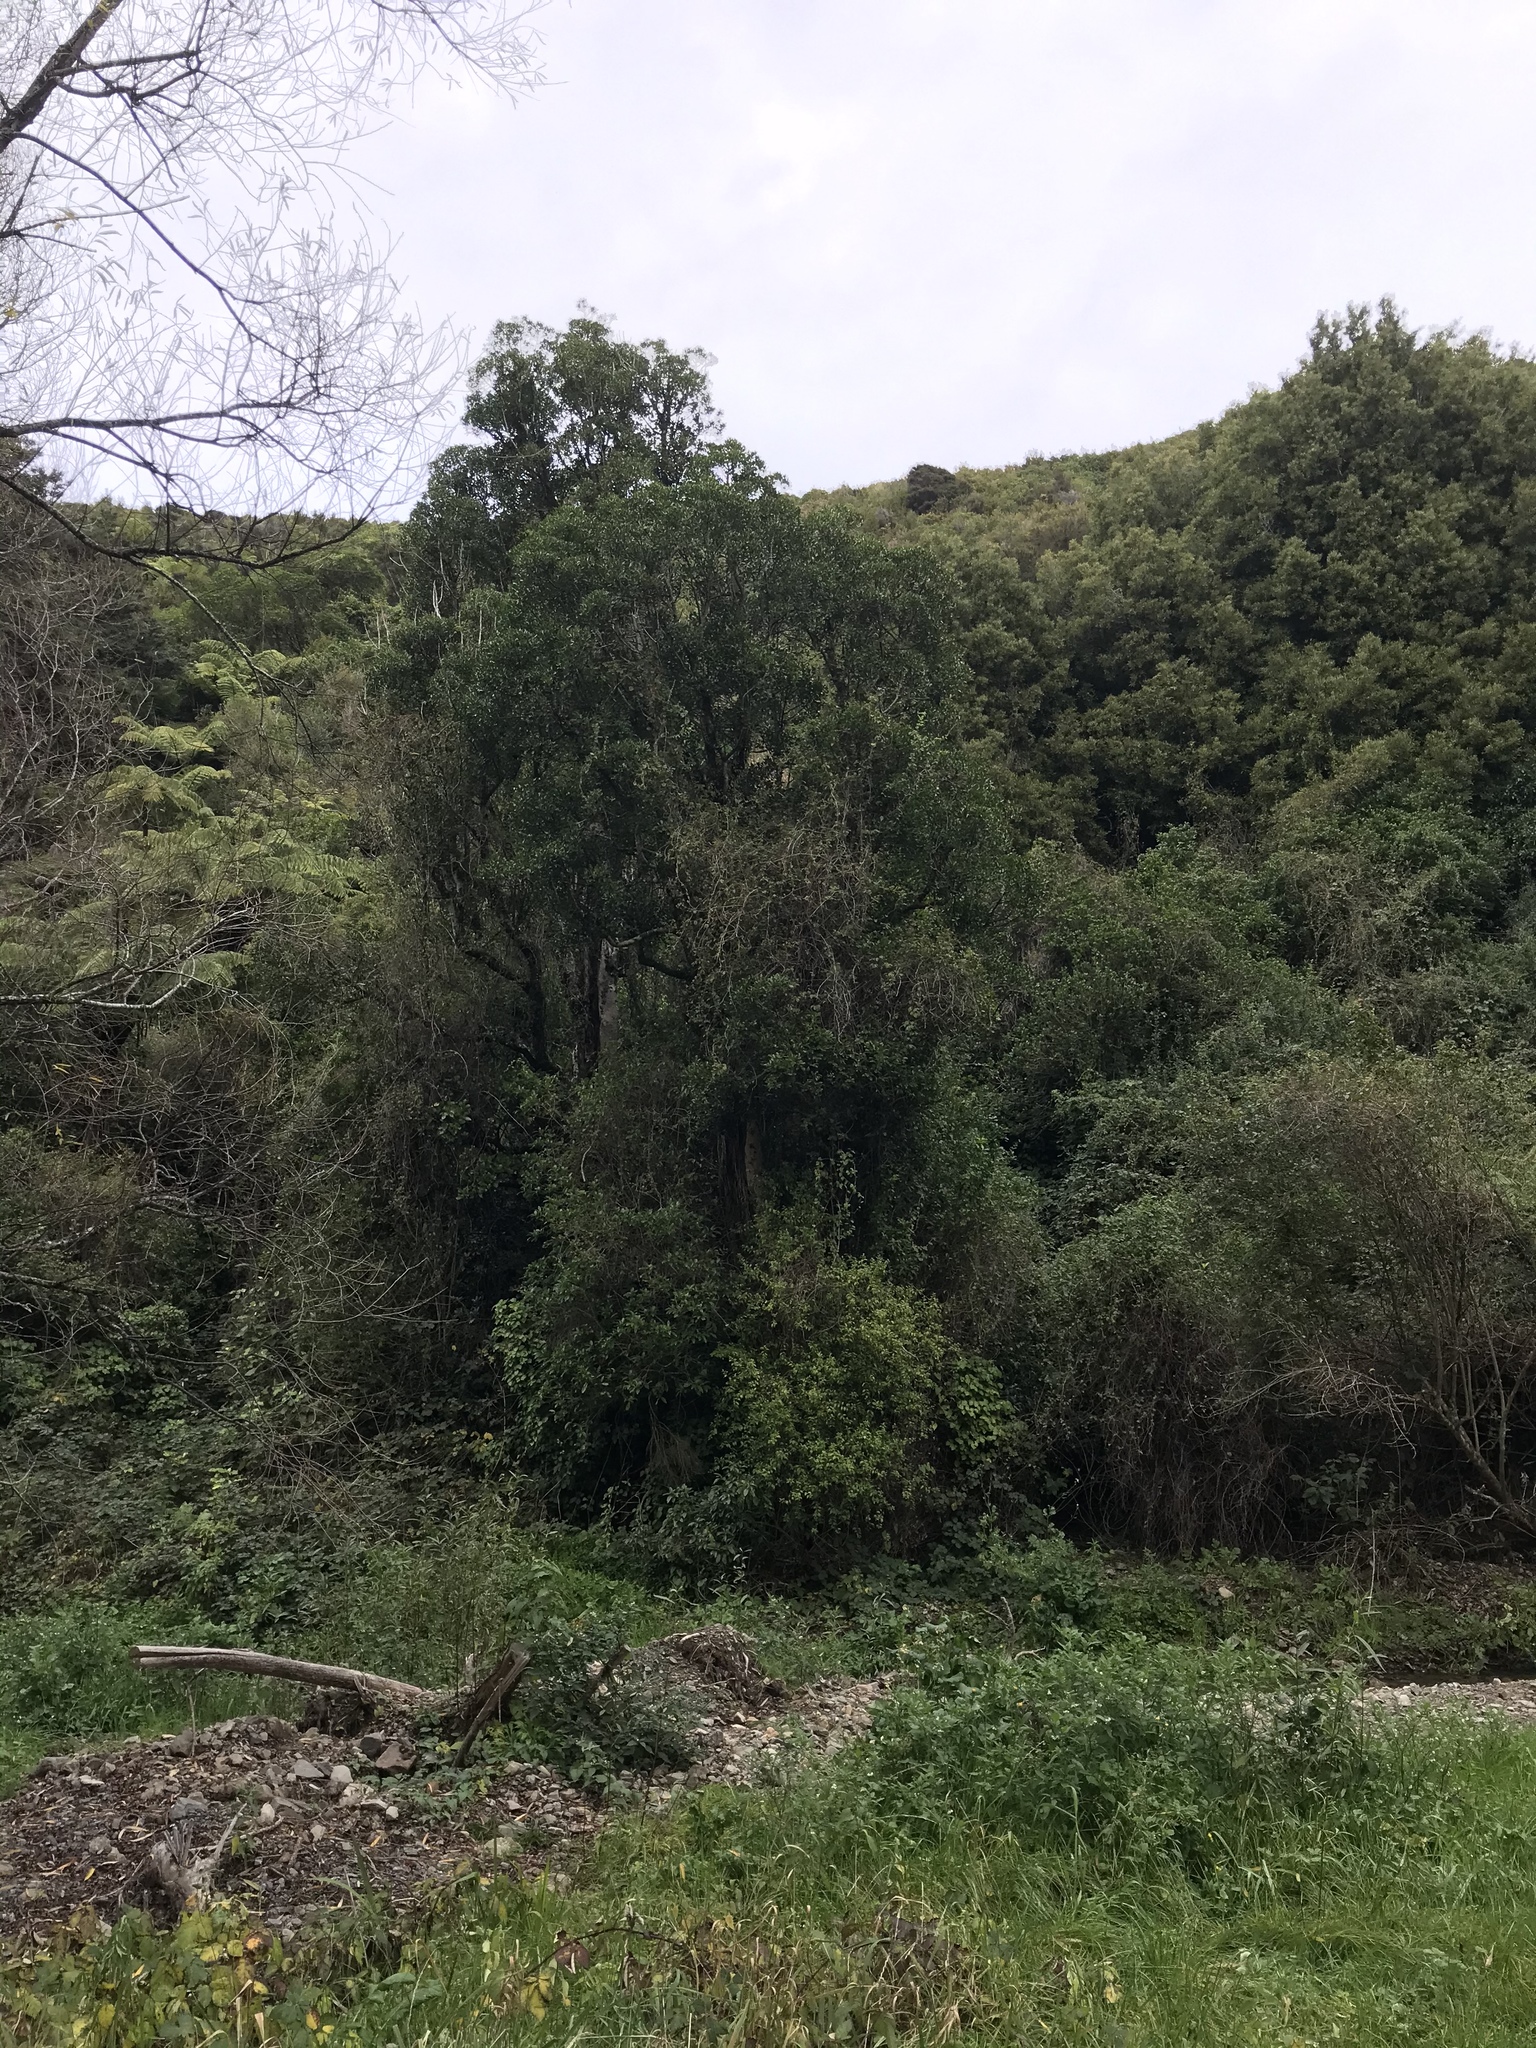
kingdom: Plantae
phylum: Tracheophyta
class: Magnoliopsida
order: Laurales
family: Atherospermataceae
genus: Laurelia
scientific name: Laurelia novae-zelandiae
